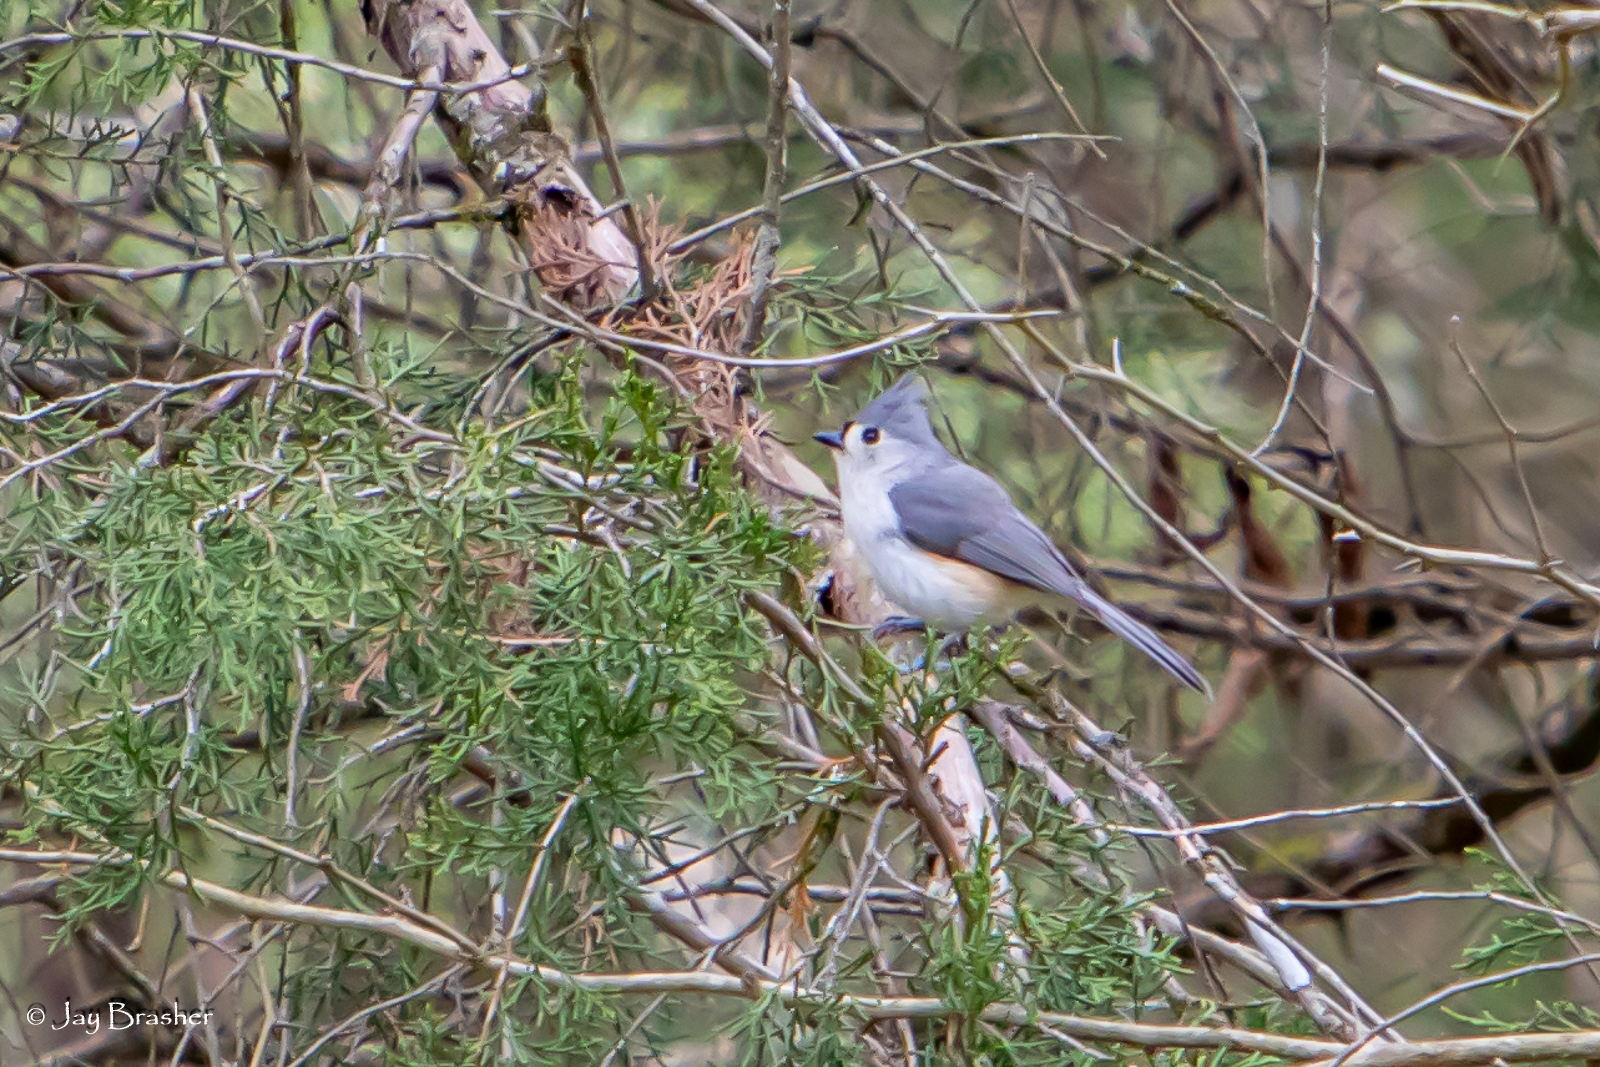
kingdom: Animalia
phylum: Chordata
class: Aves
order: Passeriformes
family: Paridae
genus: Baeolophus
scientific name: Baeolophus bicolor
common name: Tufted titmouse
